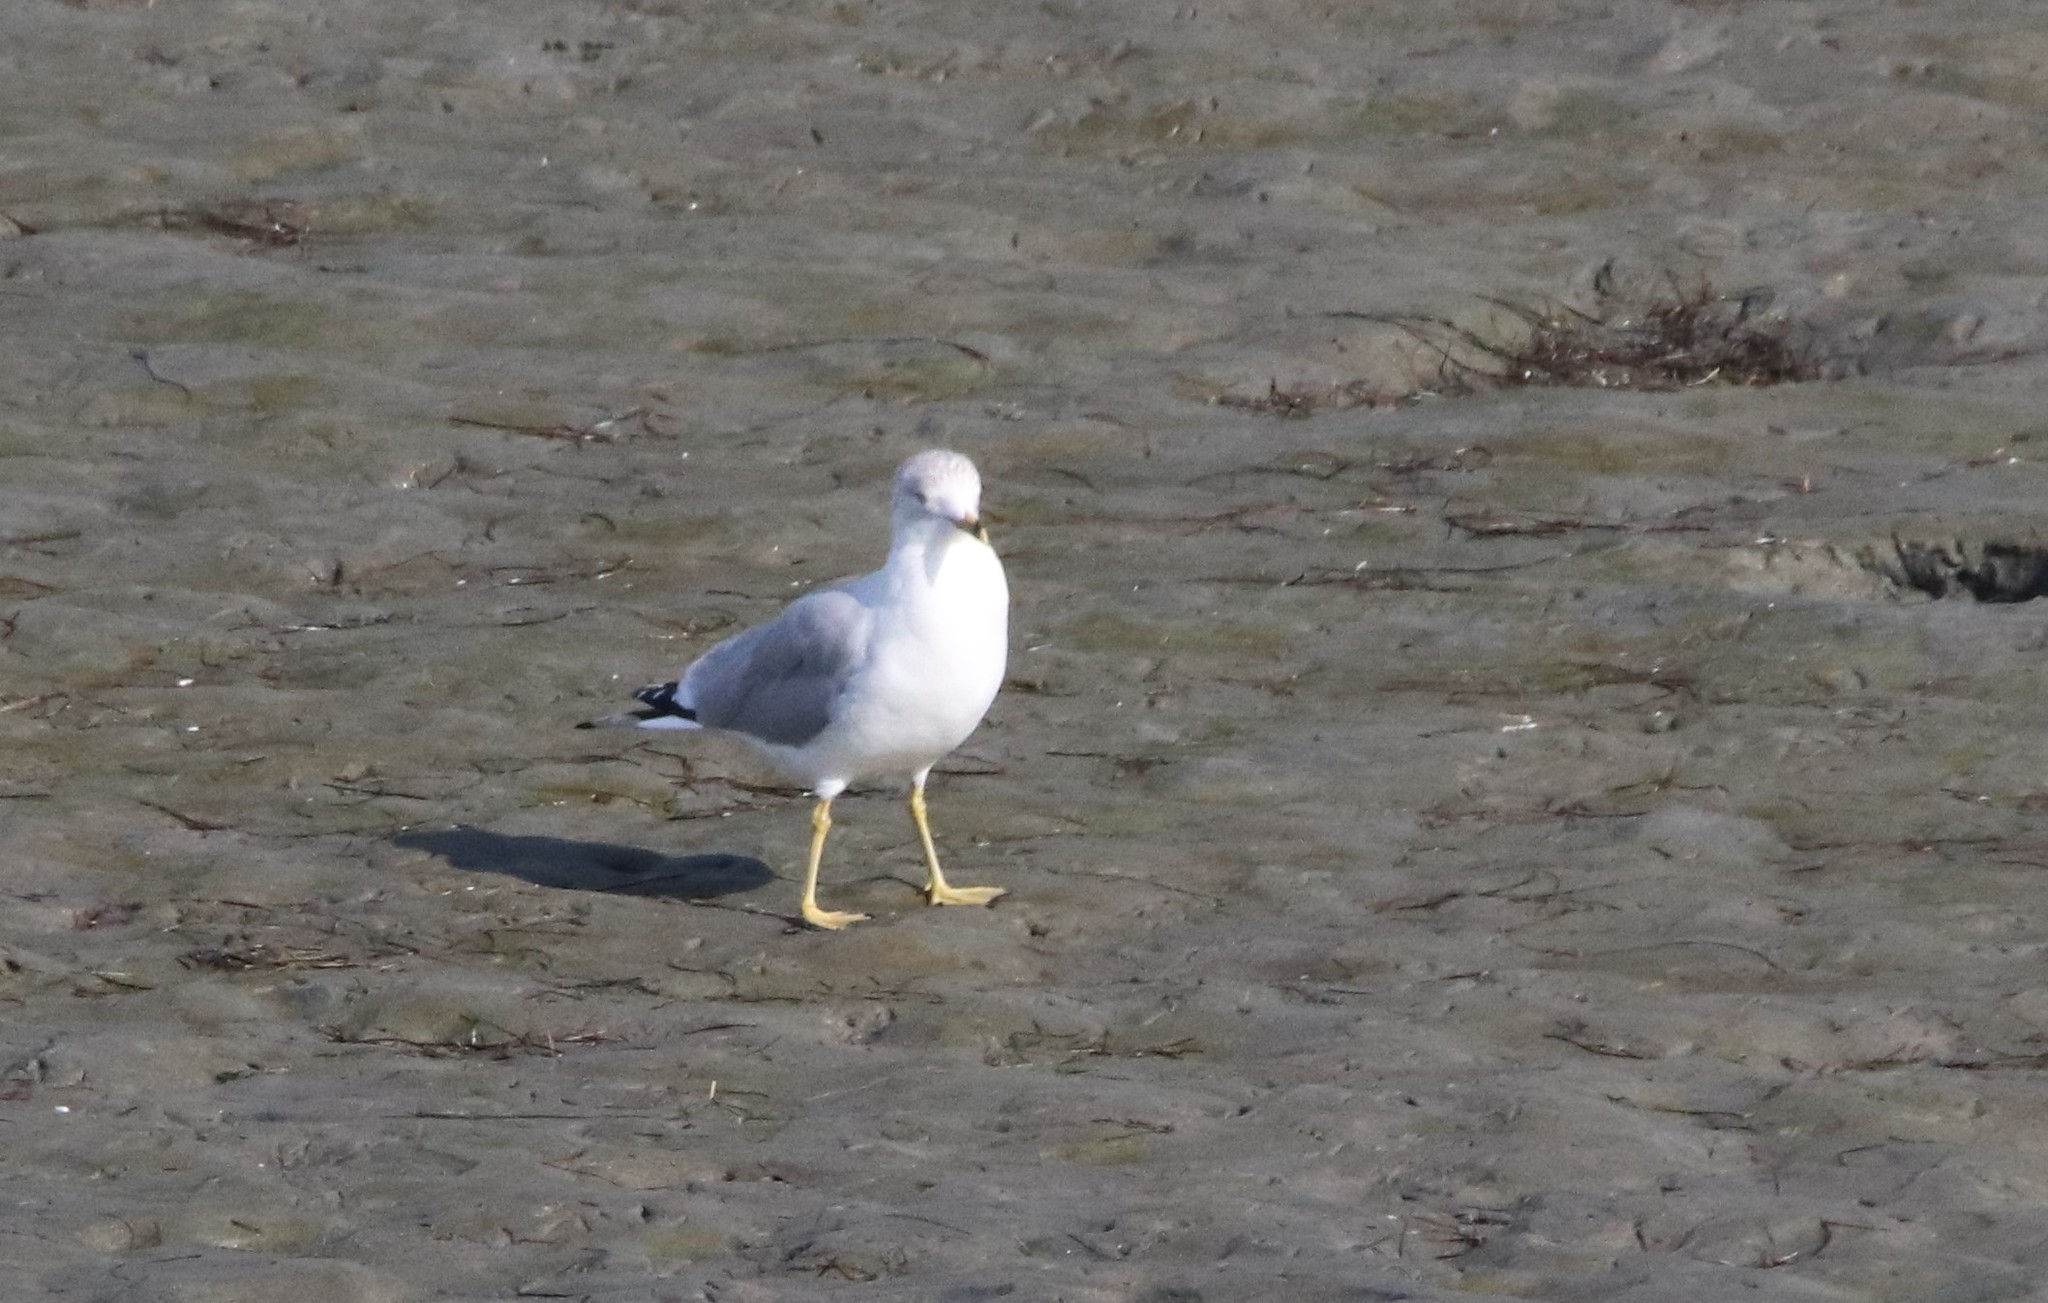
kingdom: Animalia
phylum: Chordata
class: Aves
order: Charadriiformes
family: Laridae
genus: Larus
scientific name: Larus delawarensis
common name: Ring-billed gull
